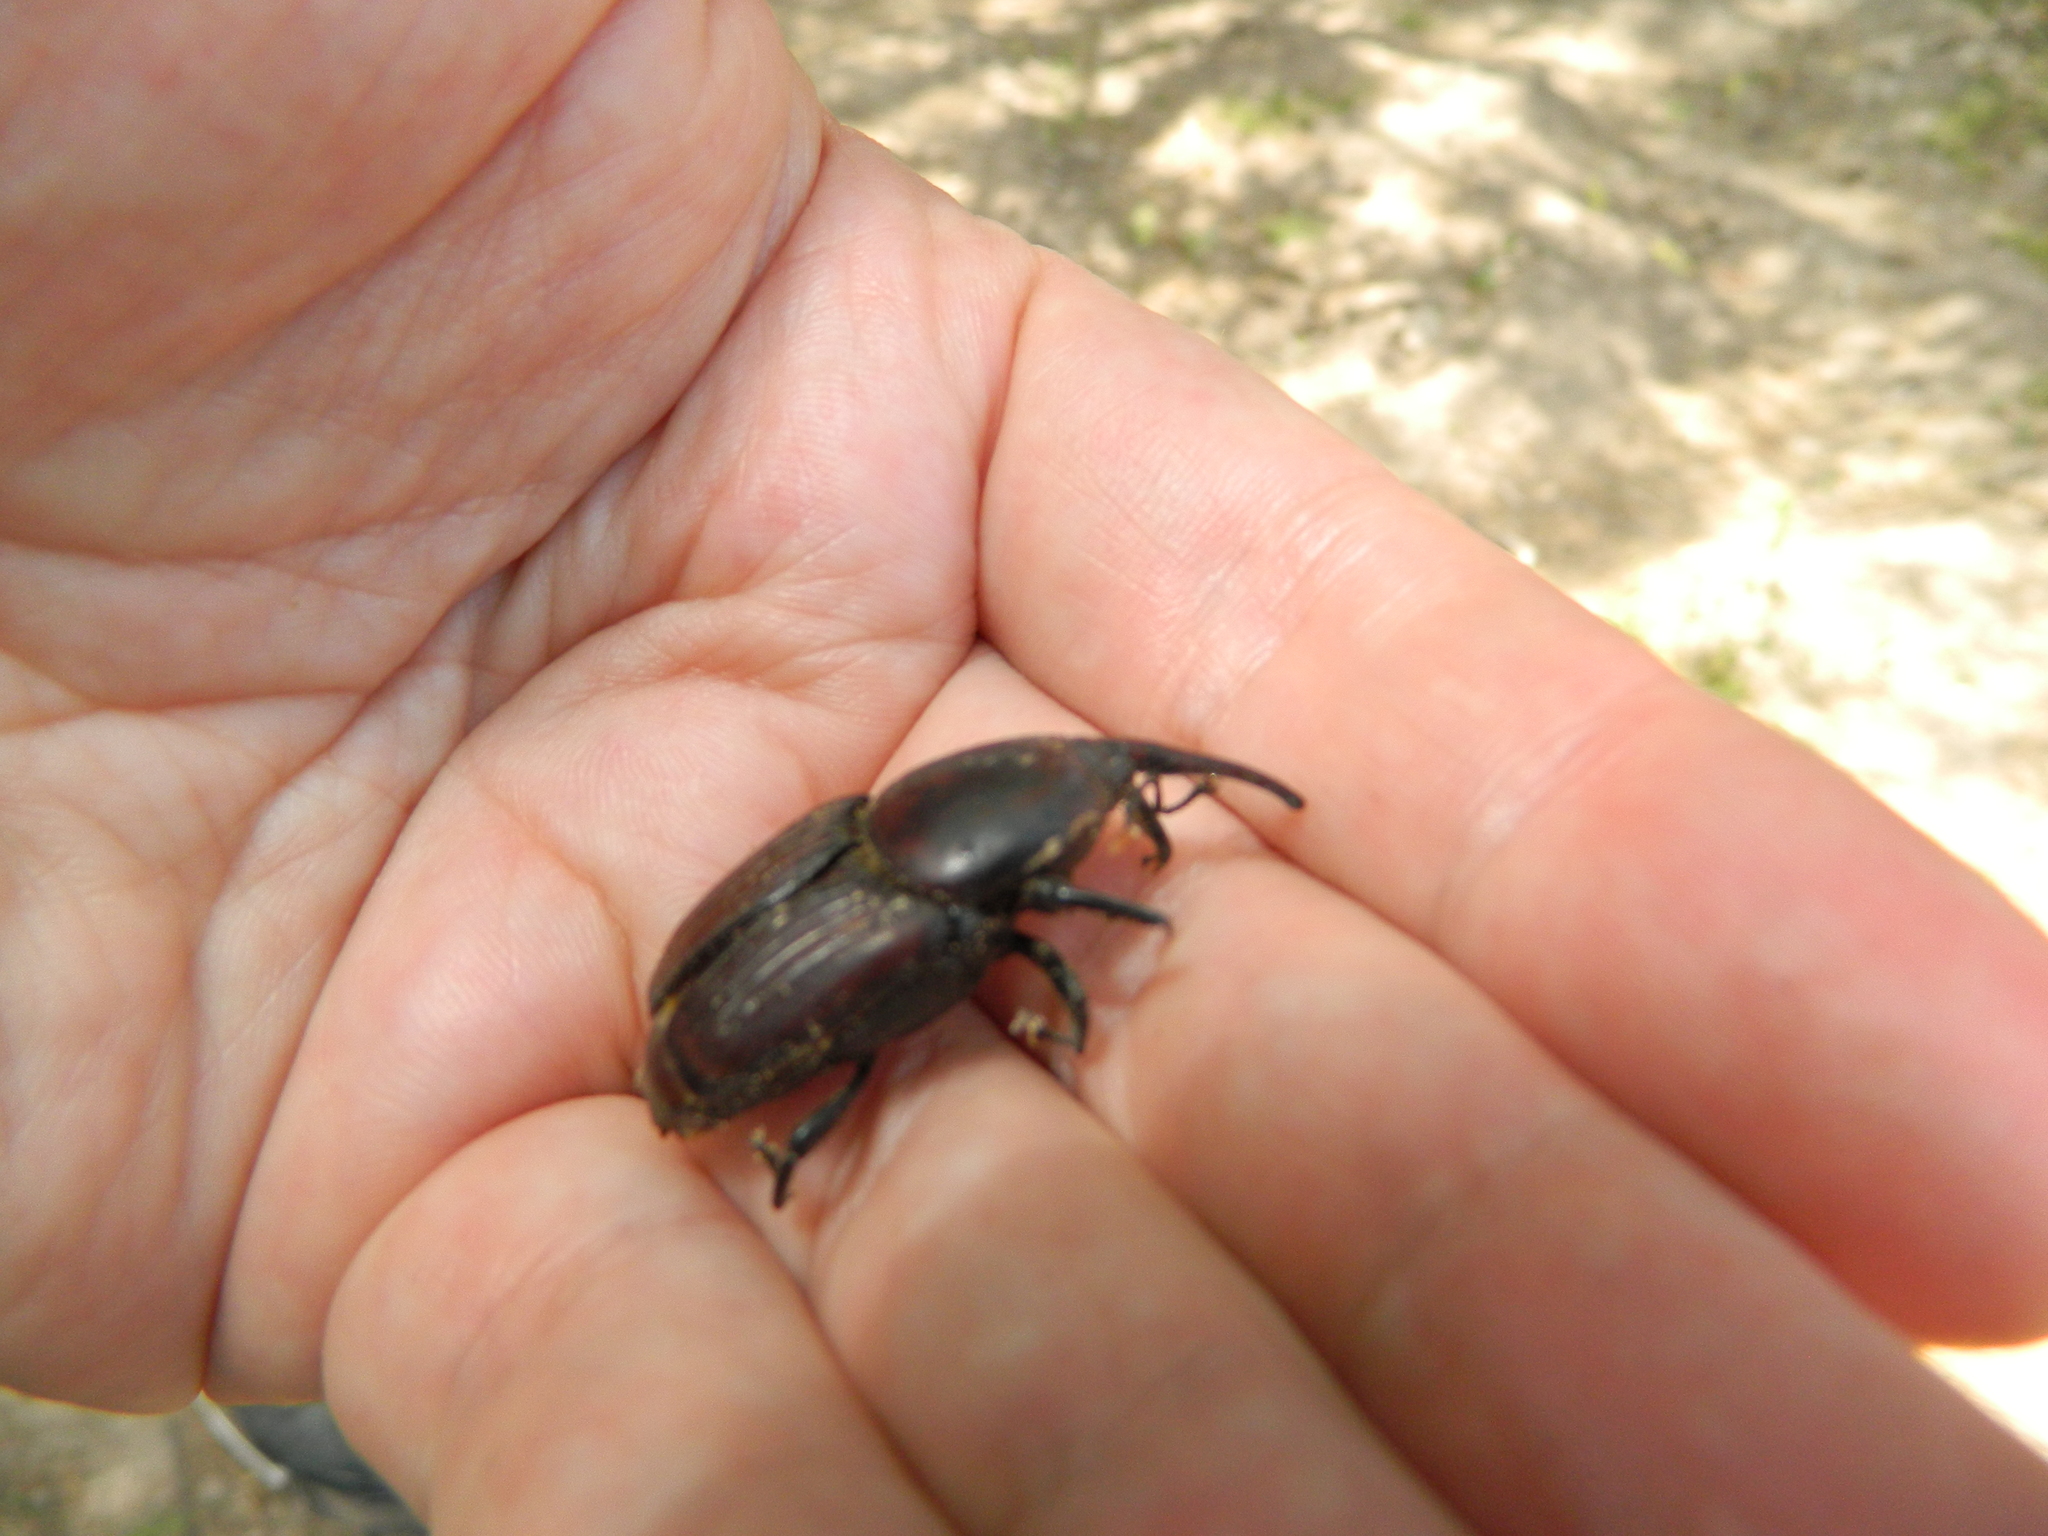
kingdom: Animalia
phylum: Arthropoda
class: Insecta
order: Coleoptera
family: Dryophthoridae
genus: Rhynchophorus
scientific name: Rhynchophorus ferrugineus
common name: Red palm weevil
